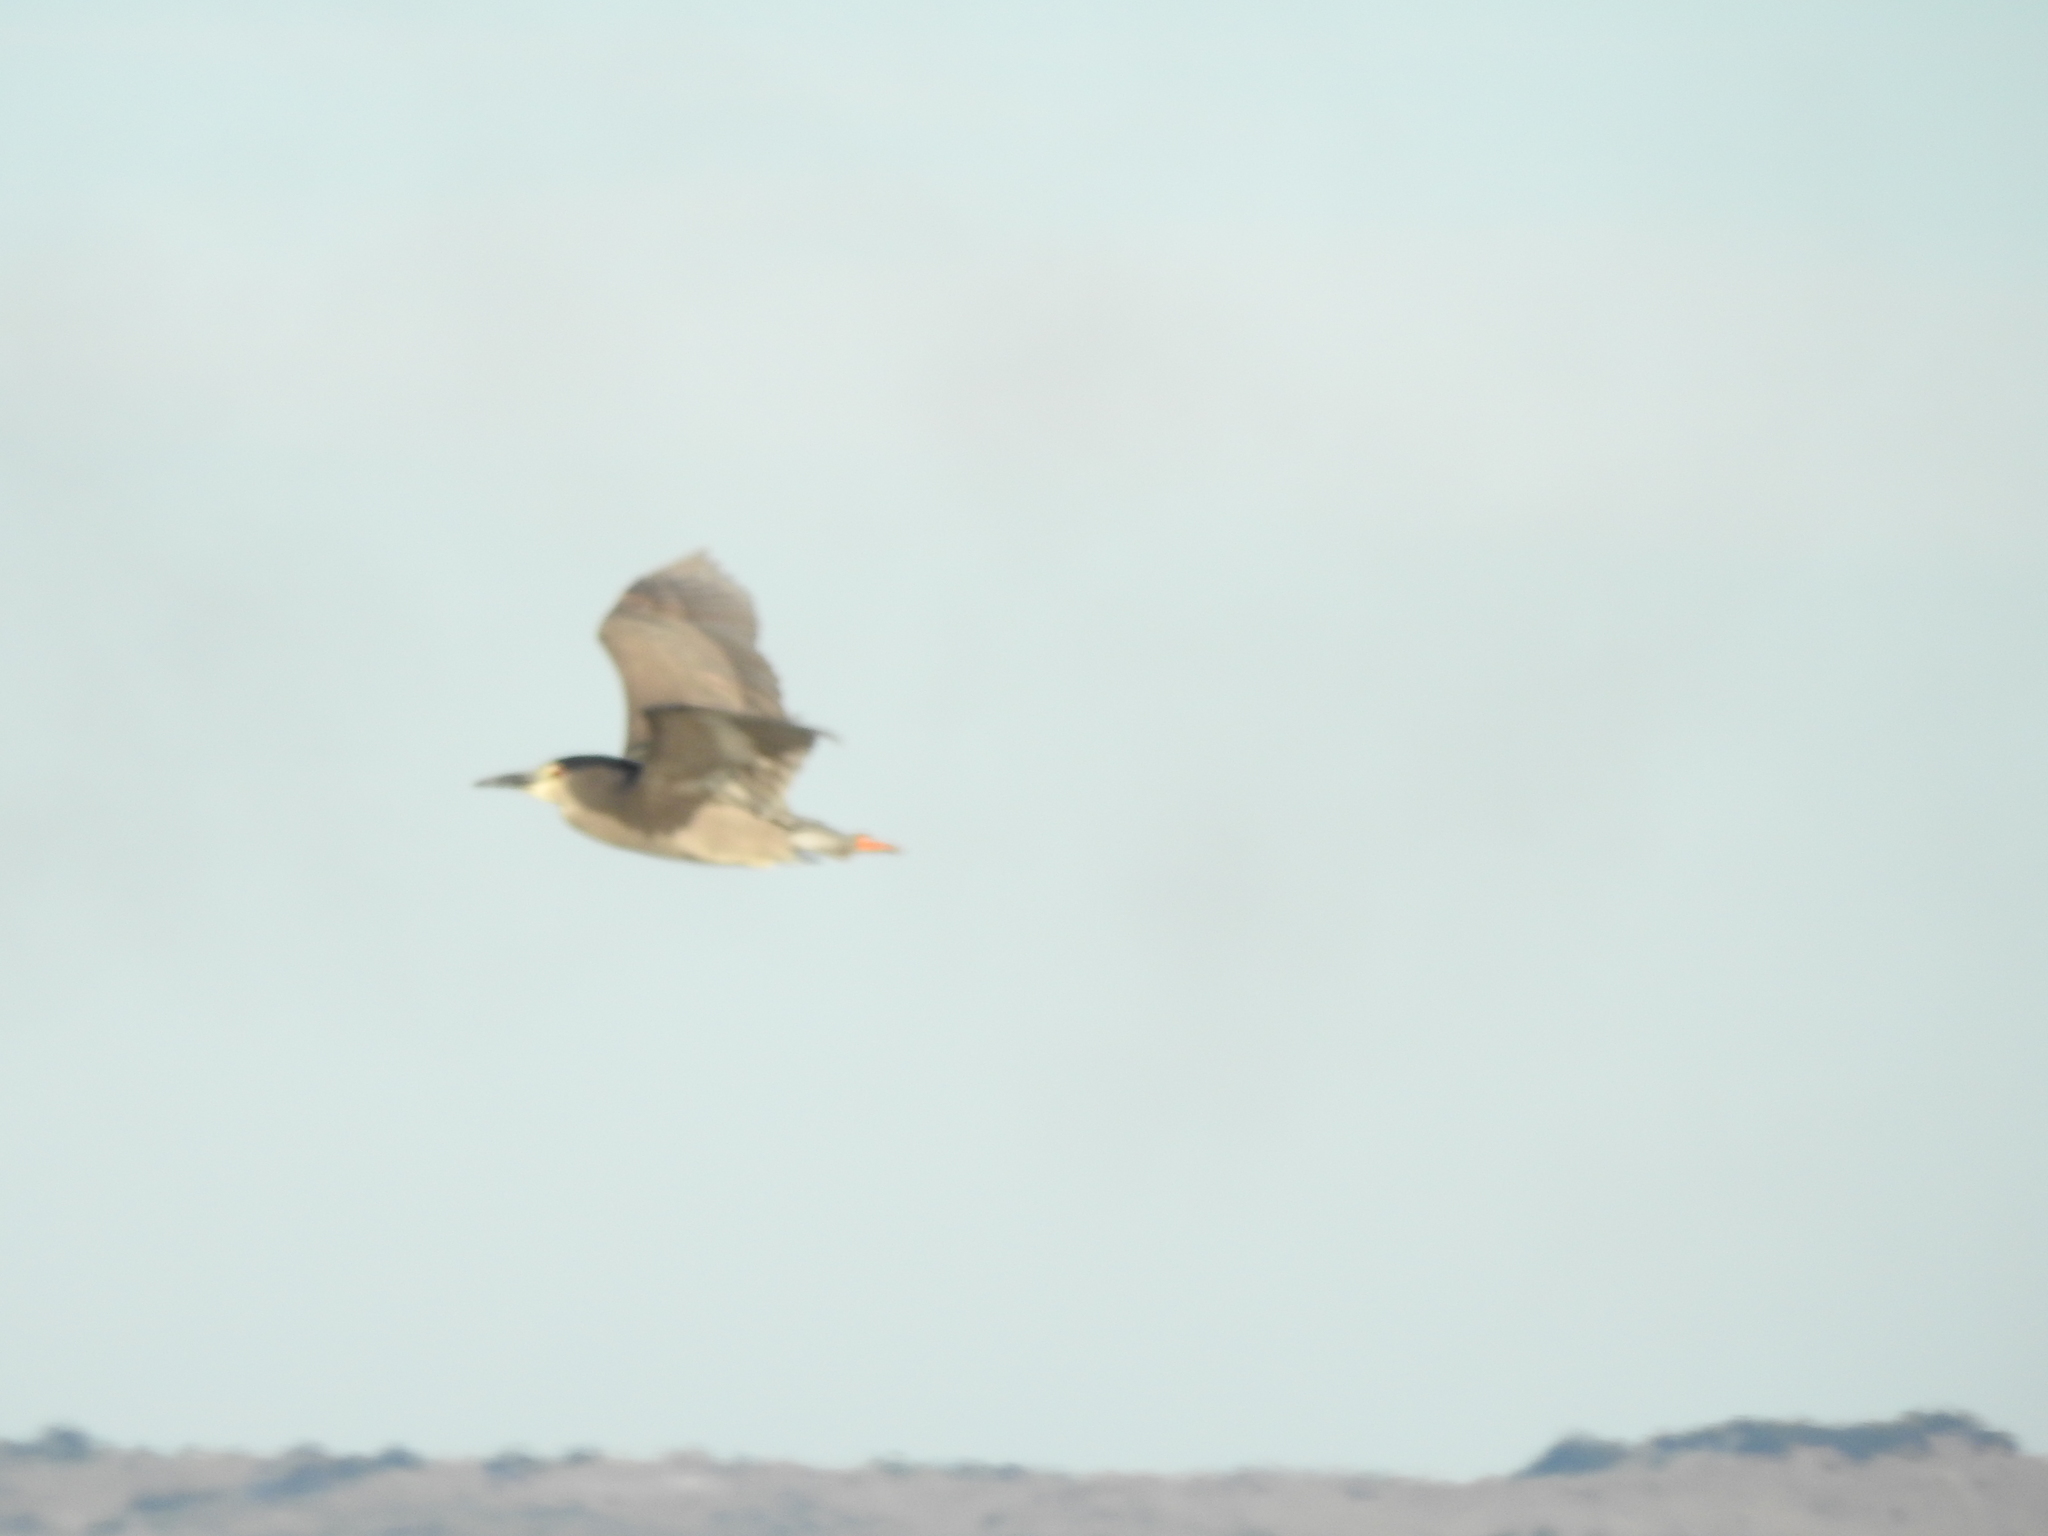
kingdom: Animalia
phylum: Chordata
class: Aves
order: Pelecaniformes
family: Ardeidae
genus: Nycticorax
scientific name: Nycticorax nycticorax
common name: Black-crowned night heron
